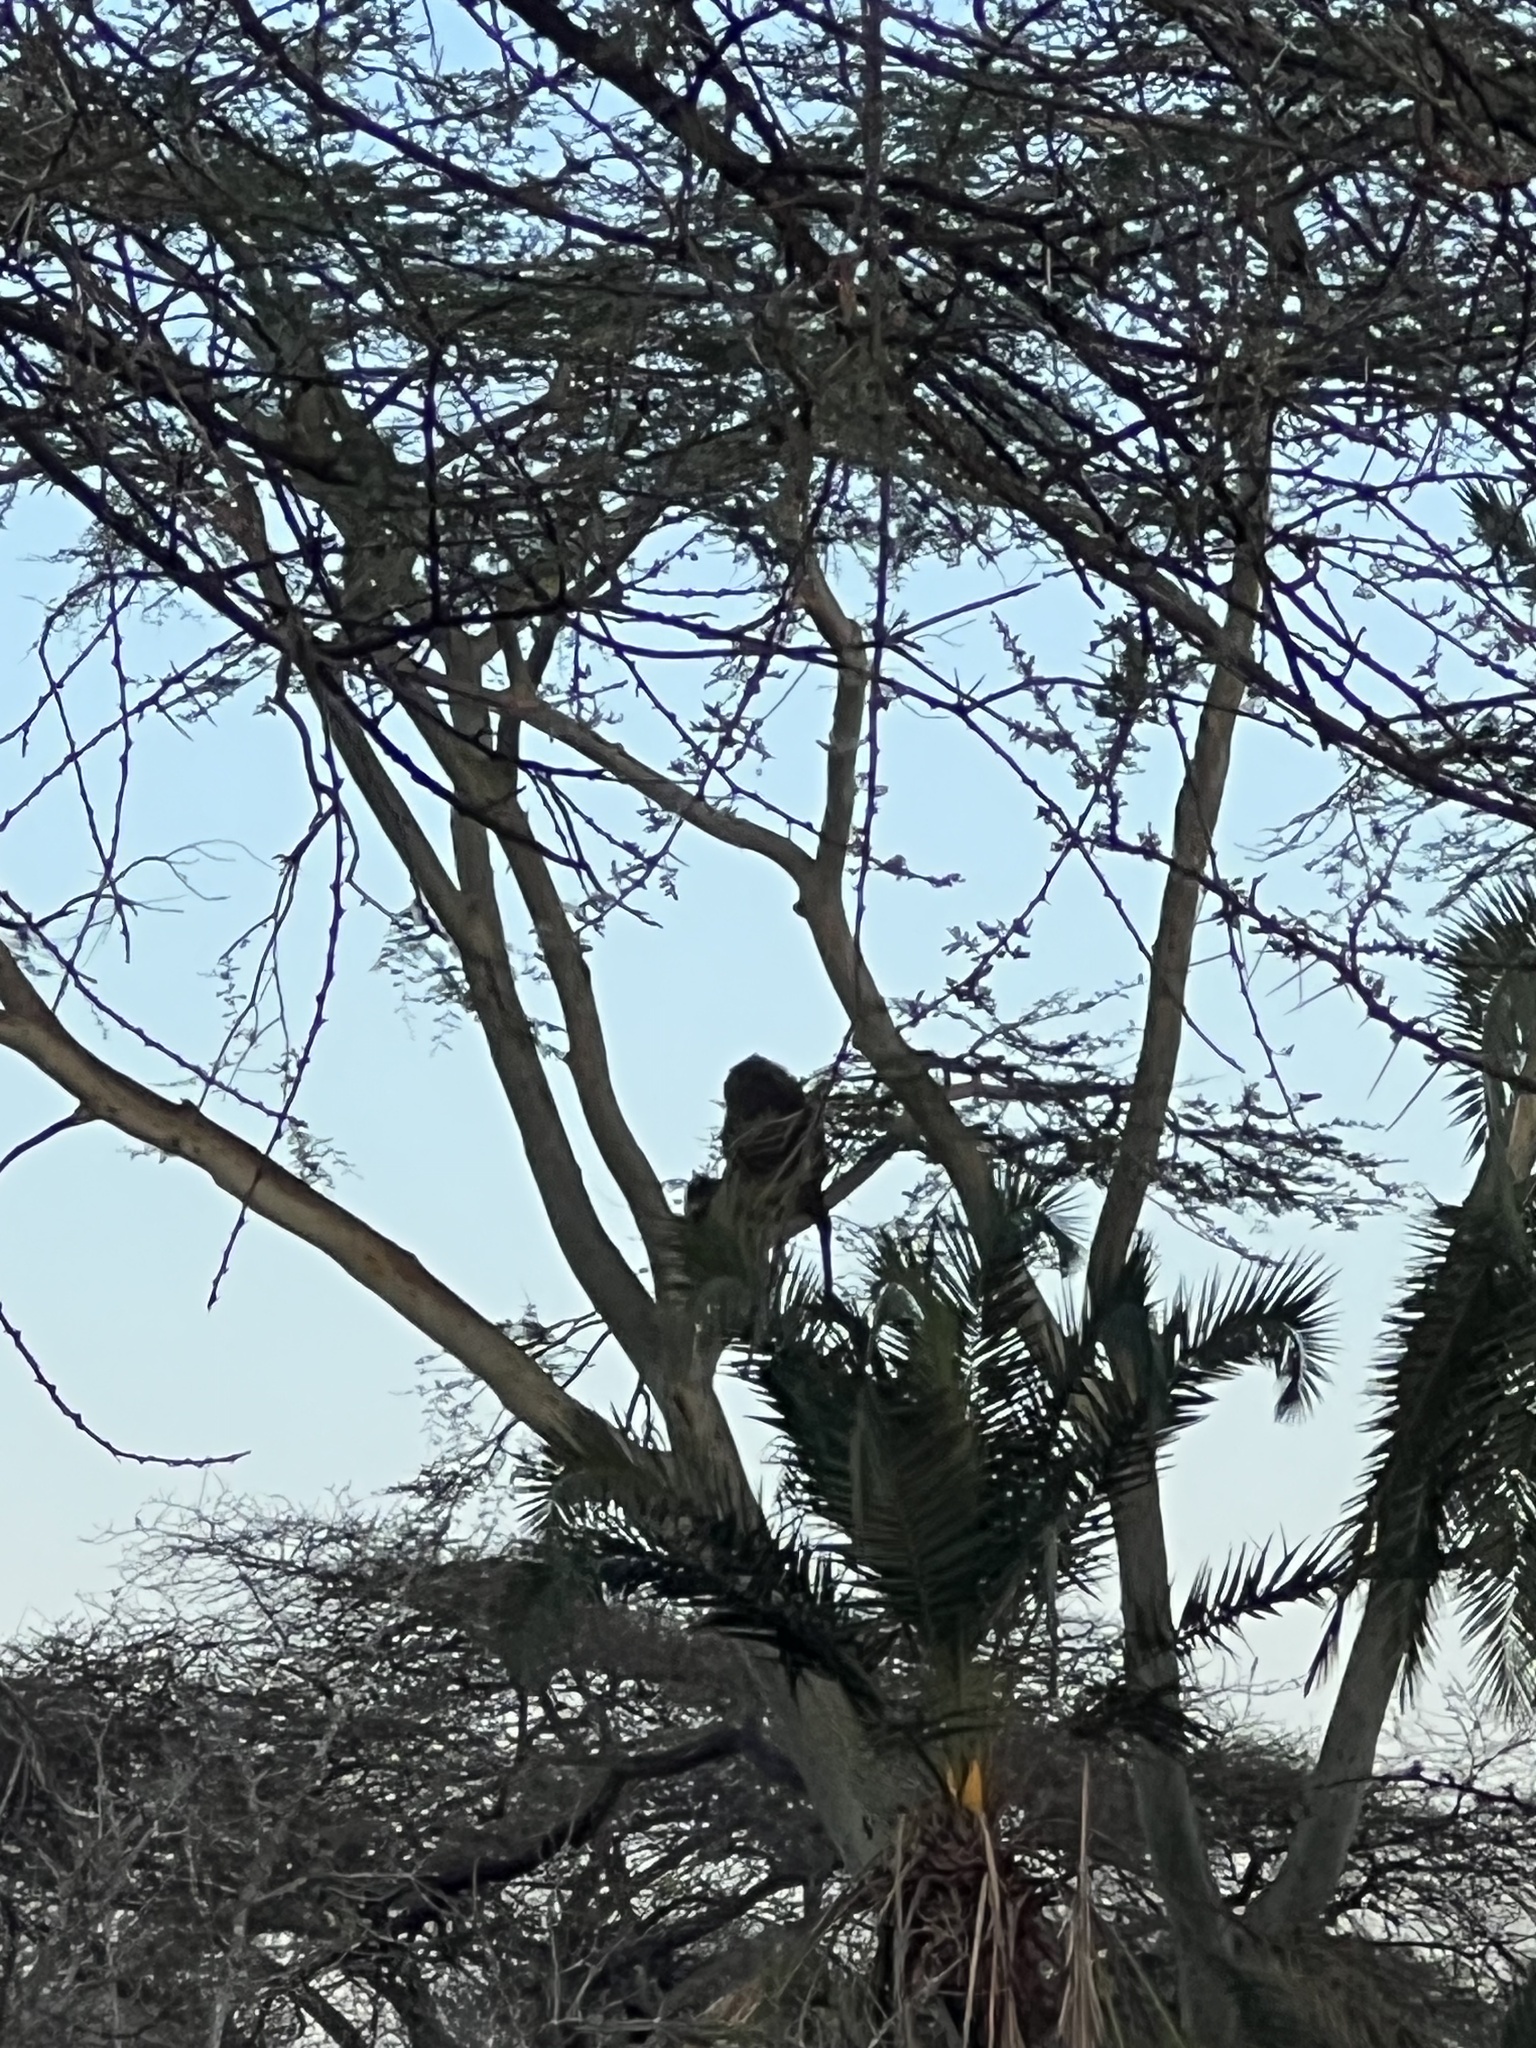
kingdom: Animalia
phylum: Chordata
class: Mammalia
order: Primates
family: Cercopithecidae
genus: Papio
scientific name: Papio anubis
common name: Olive baboon
